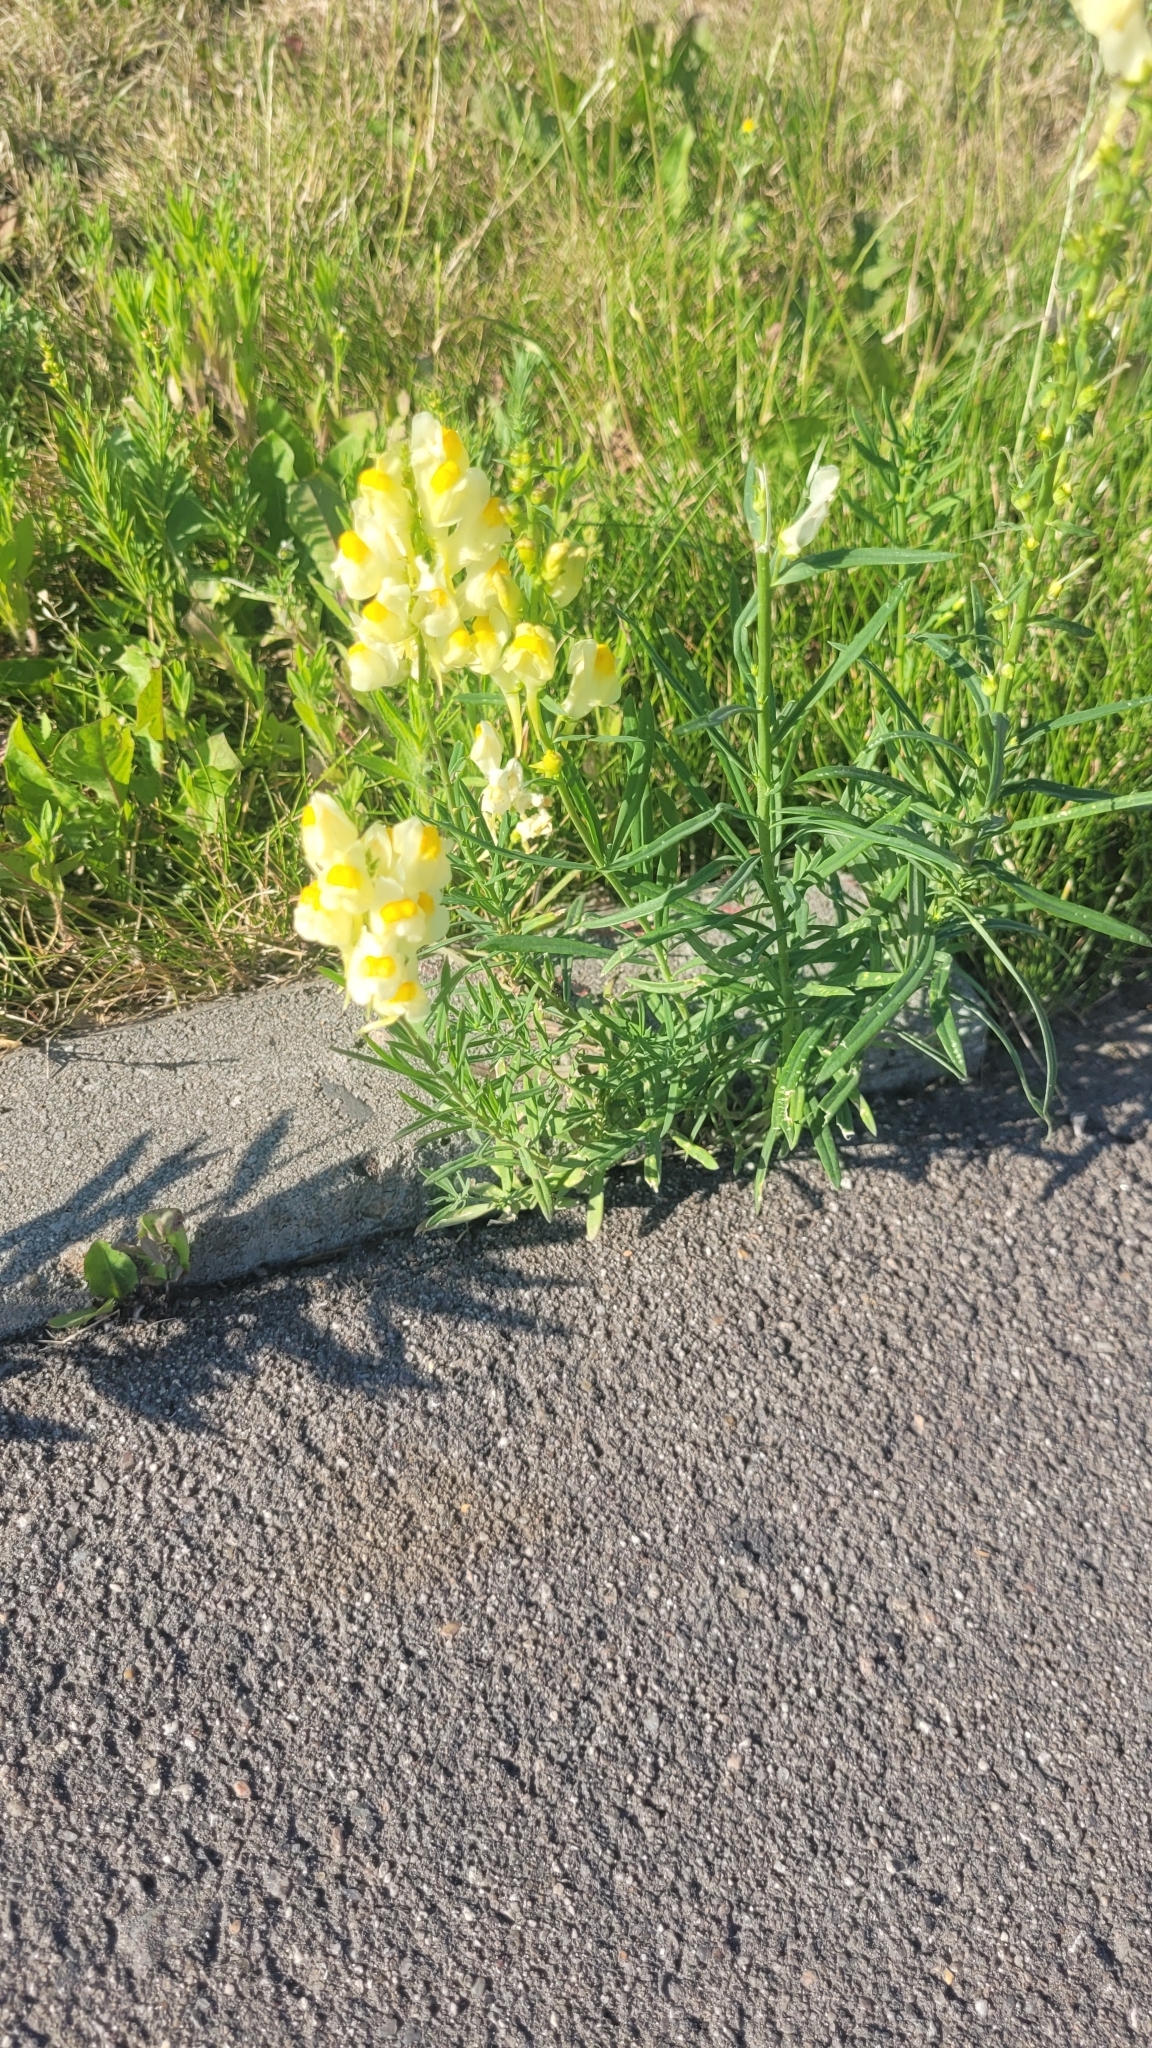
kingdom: Plantae
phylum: Tracheophyta
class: Magnoliopsida
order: Lamiales
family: Plantaginaceae
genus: Linaria
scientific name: Linaria vulgaris
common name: Butter and eggs
